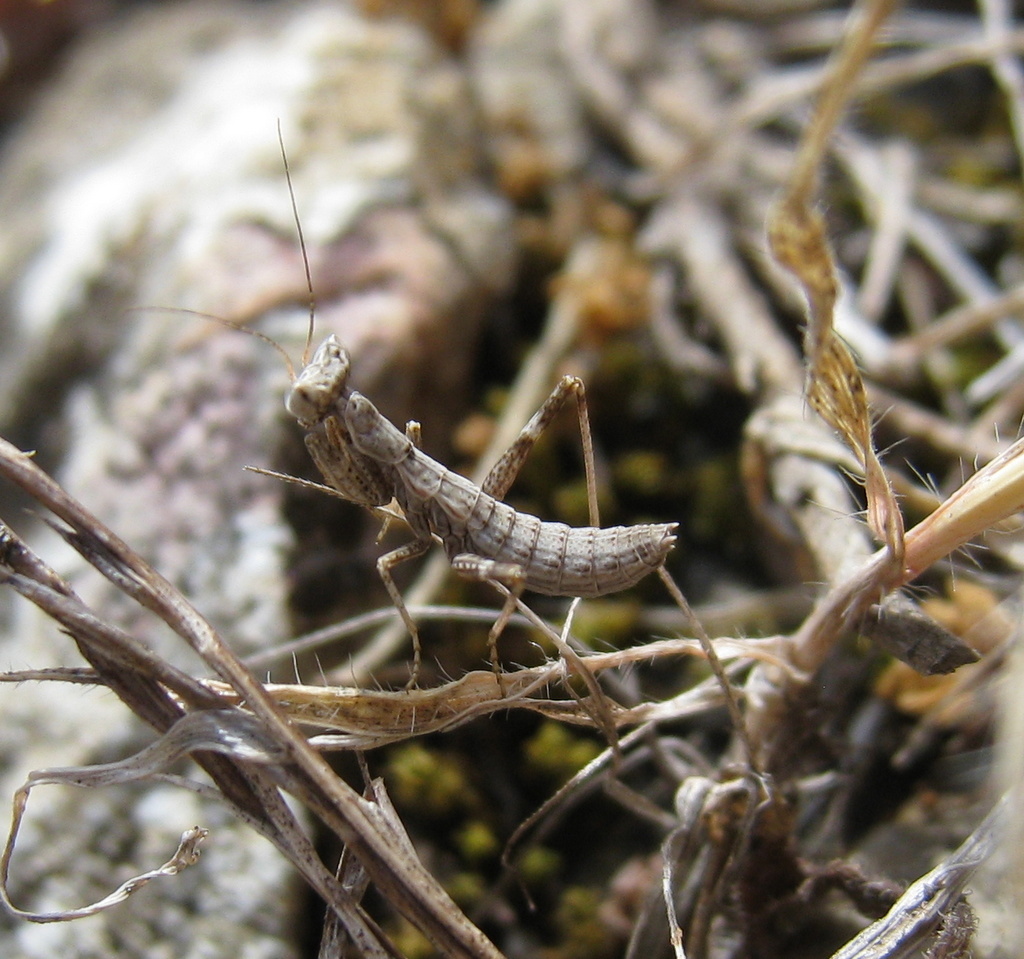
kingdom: Animalia
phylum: Arthropoda
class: Insecta
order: Mantodea
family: Amelidae
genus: Ameles
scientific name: Ameles spallanzania
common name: European dwarf mantis
